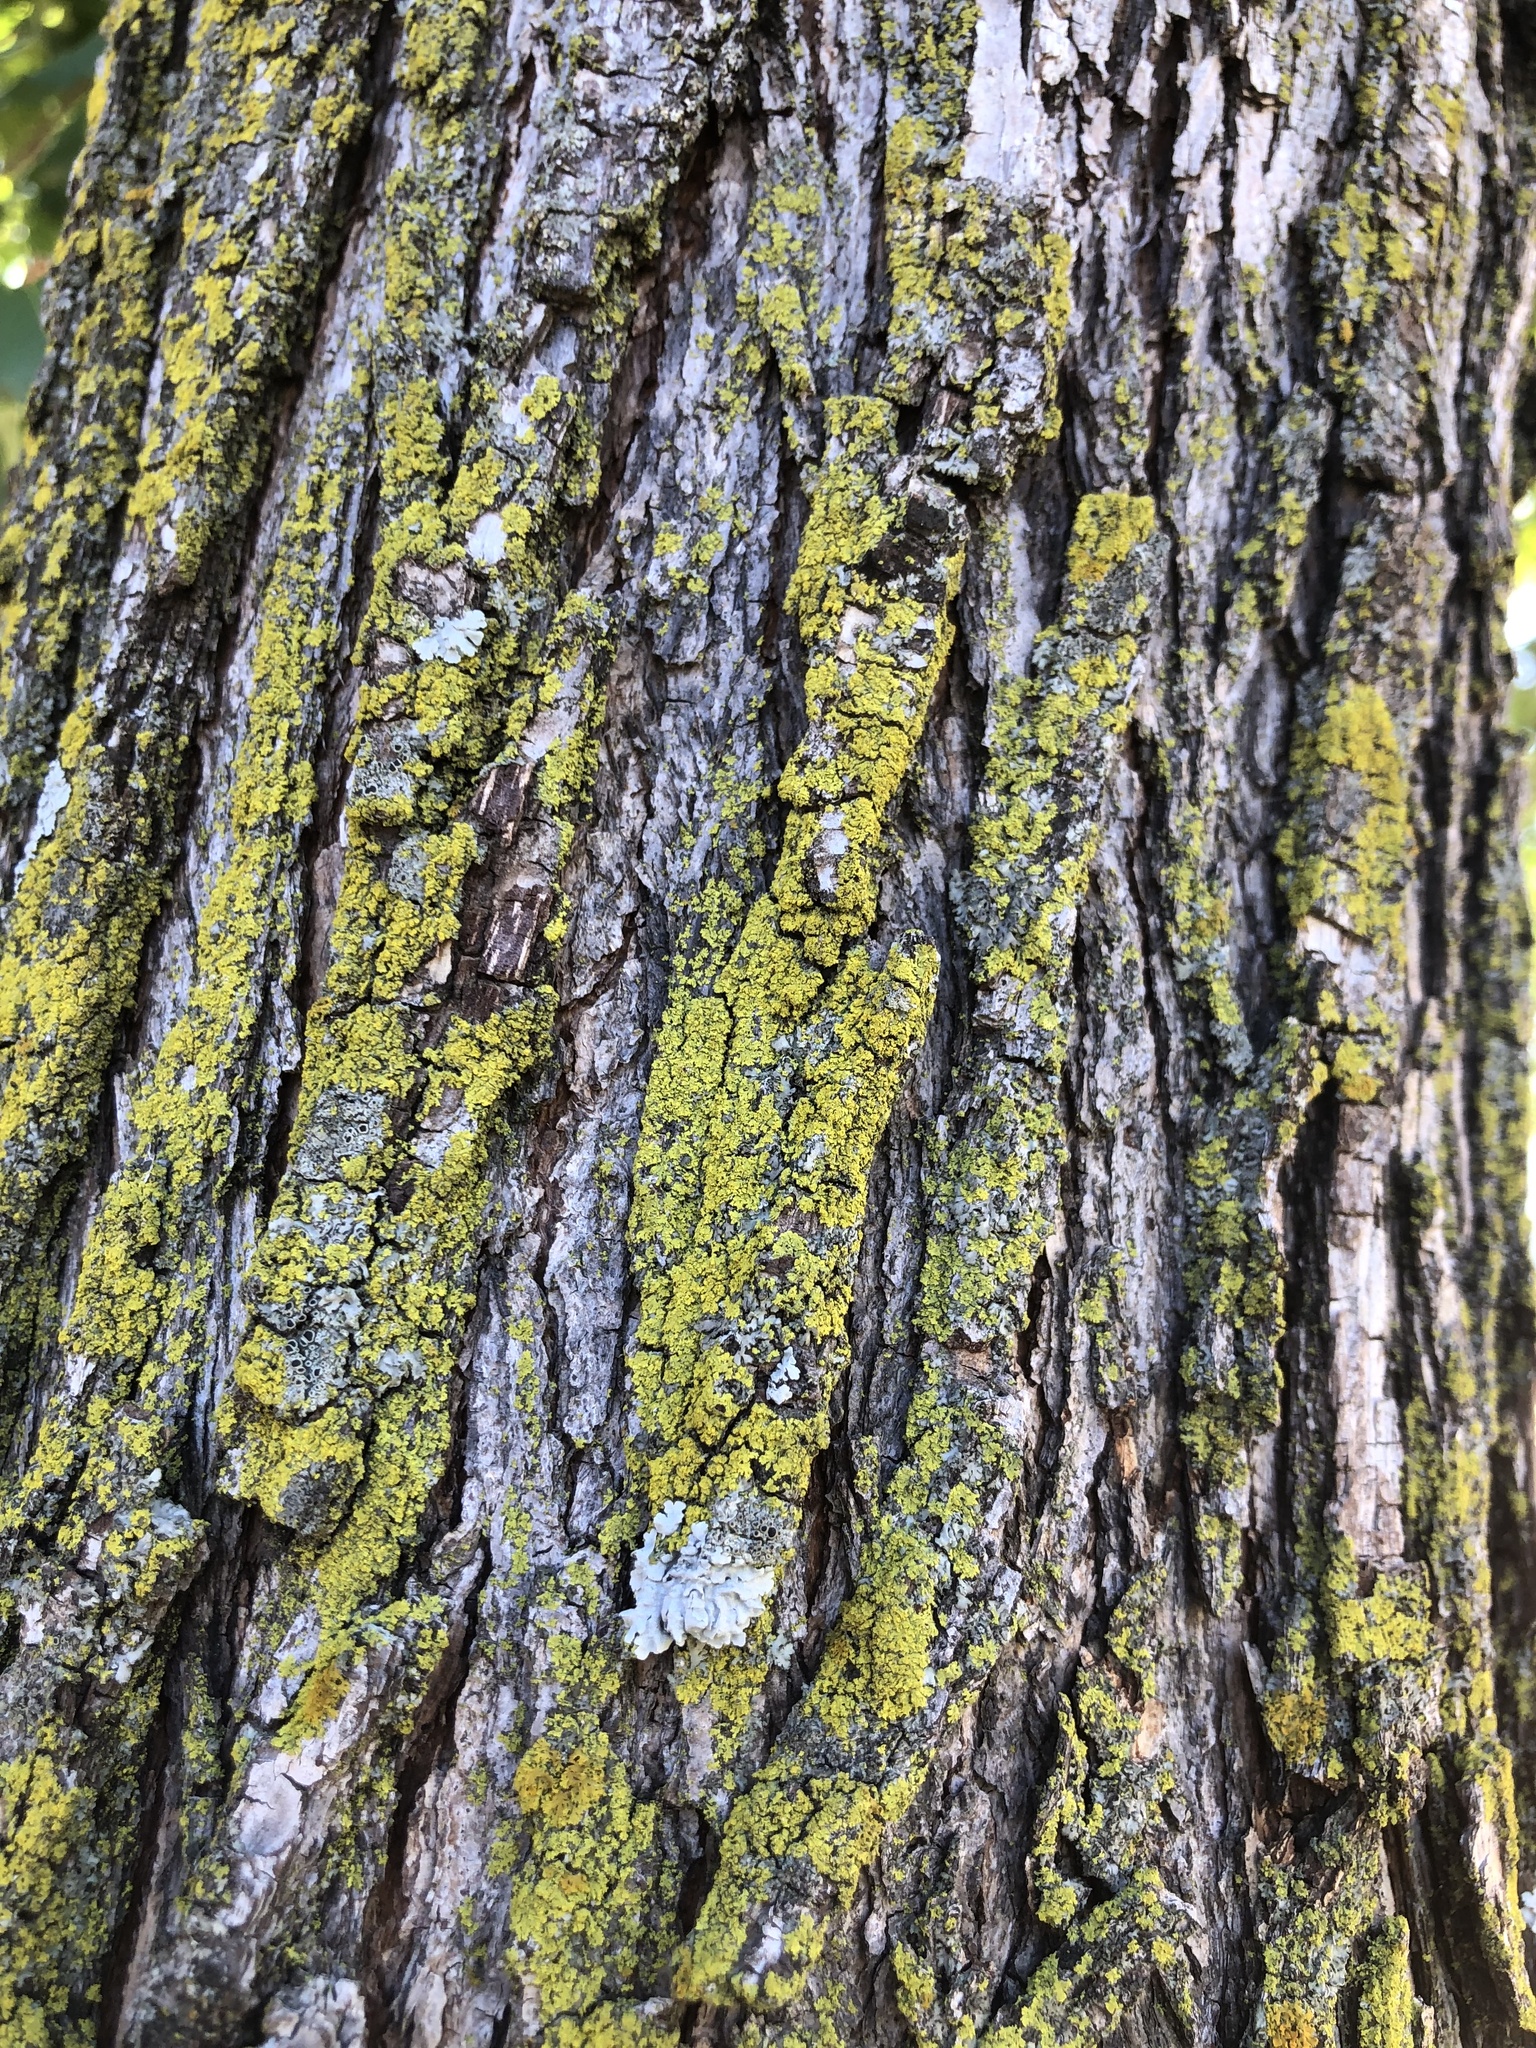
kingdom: Fungi
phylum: Ascomycota
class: Candelariomycetes
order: Candelariales
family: Candelariaceae
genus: Candelaria
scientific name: Candelaria concolor
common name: Candleflame lichen
